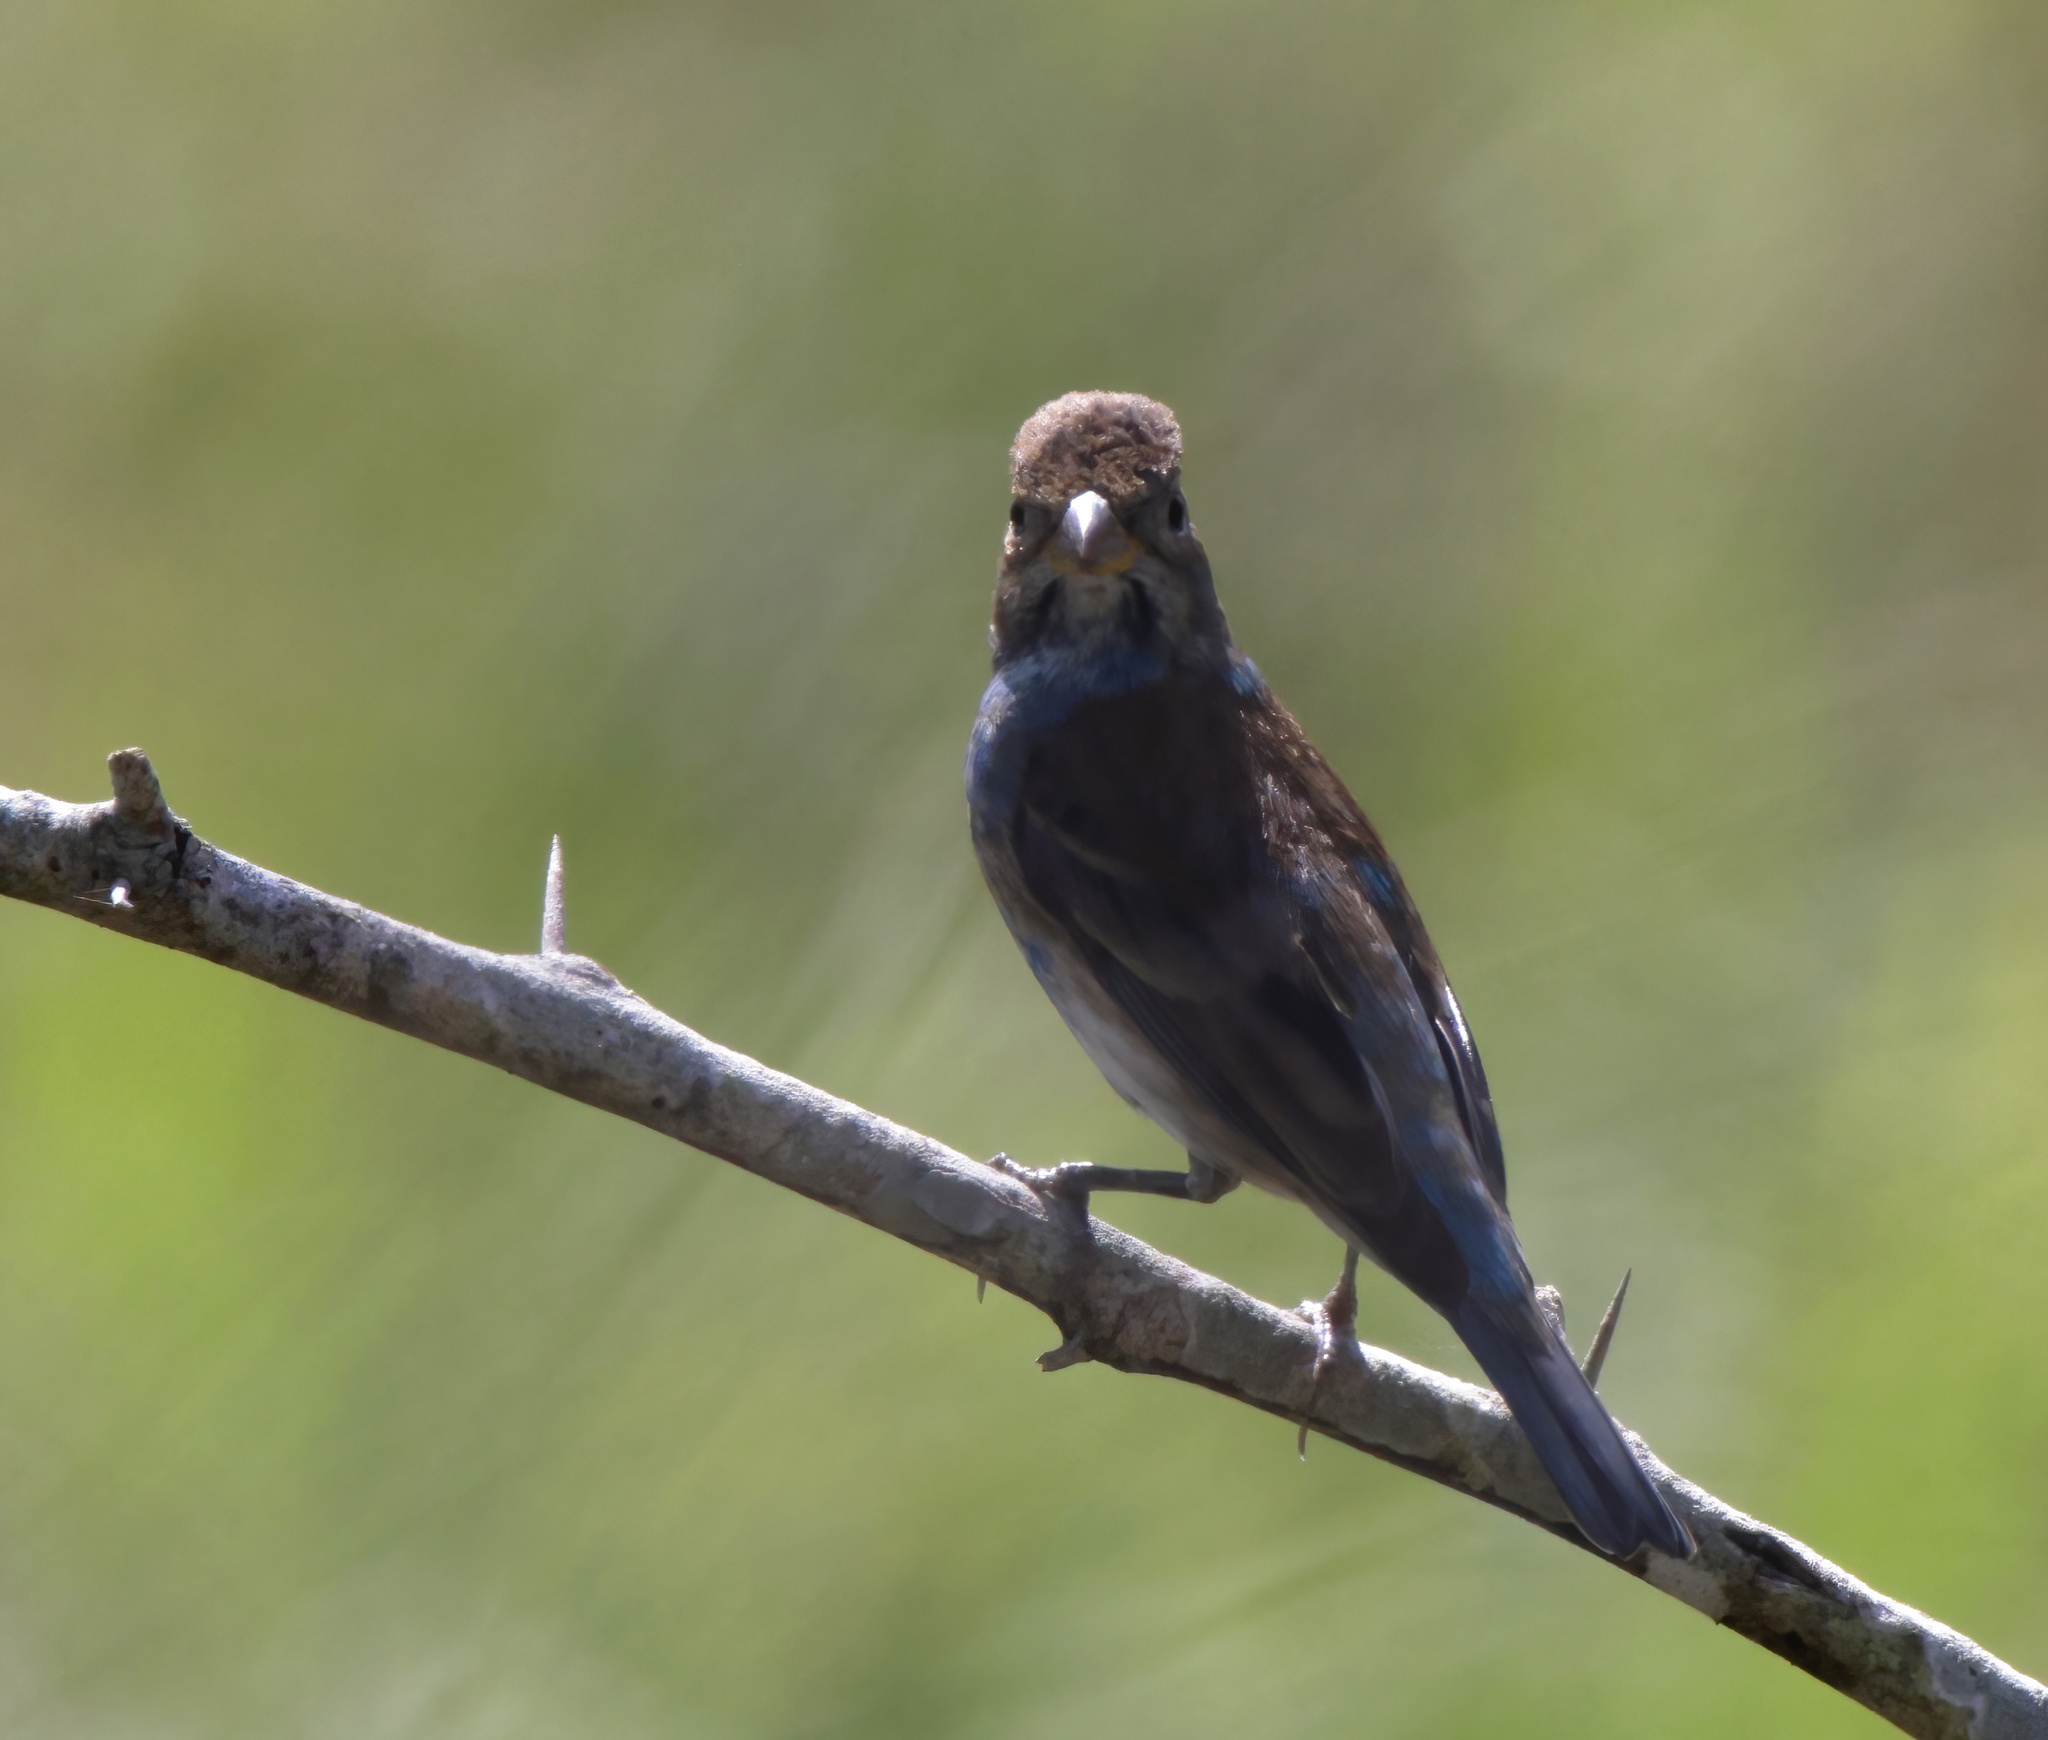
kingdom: Animalia
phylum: Chordata
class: Aves
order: Passeriformes
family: Cardinalidae
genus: Passerina
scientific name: Passerina cyanea
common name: Indigo bunting
